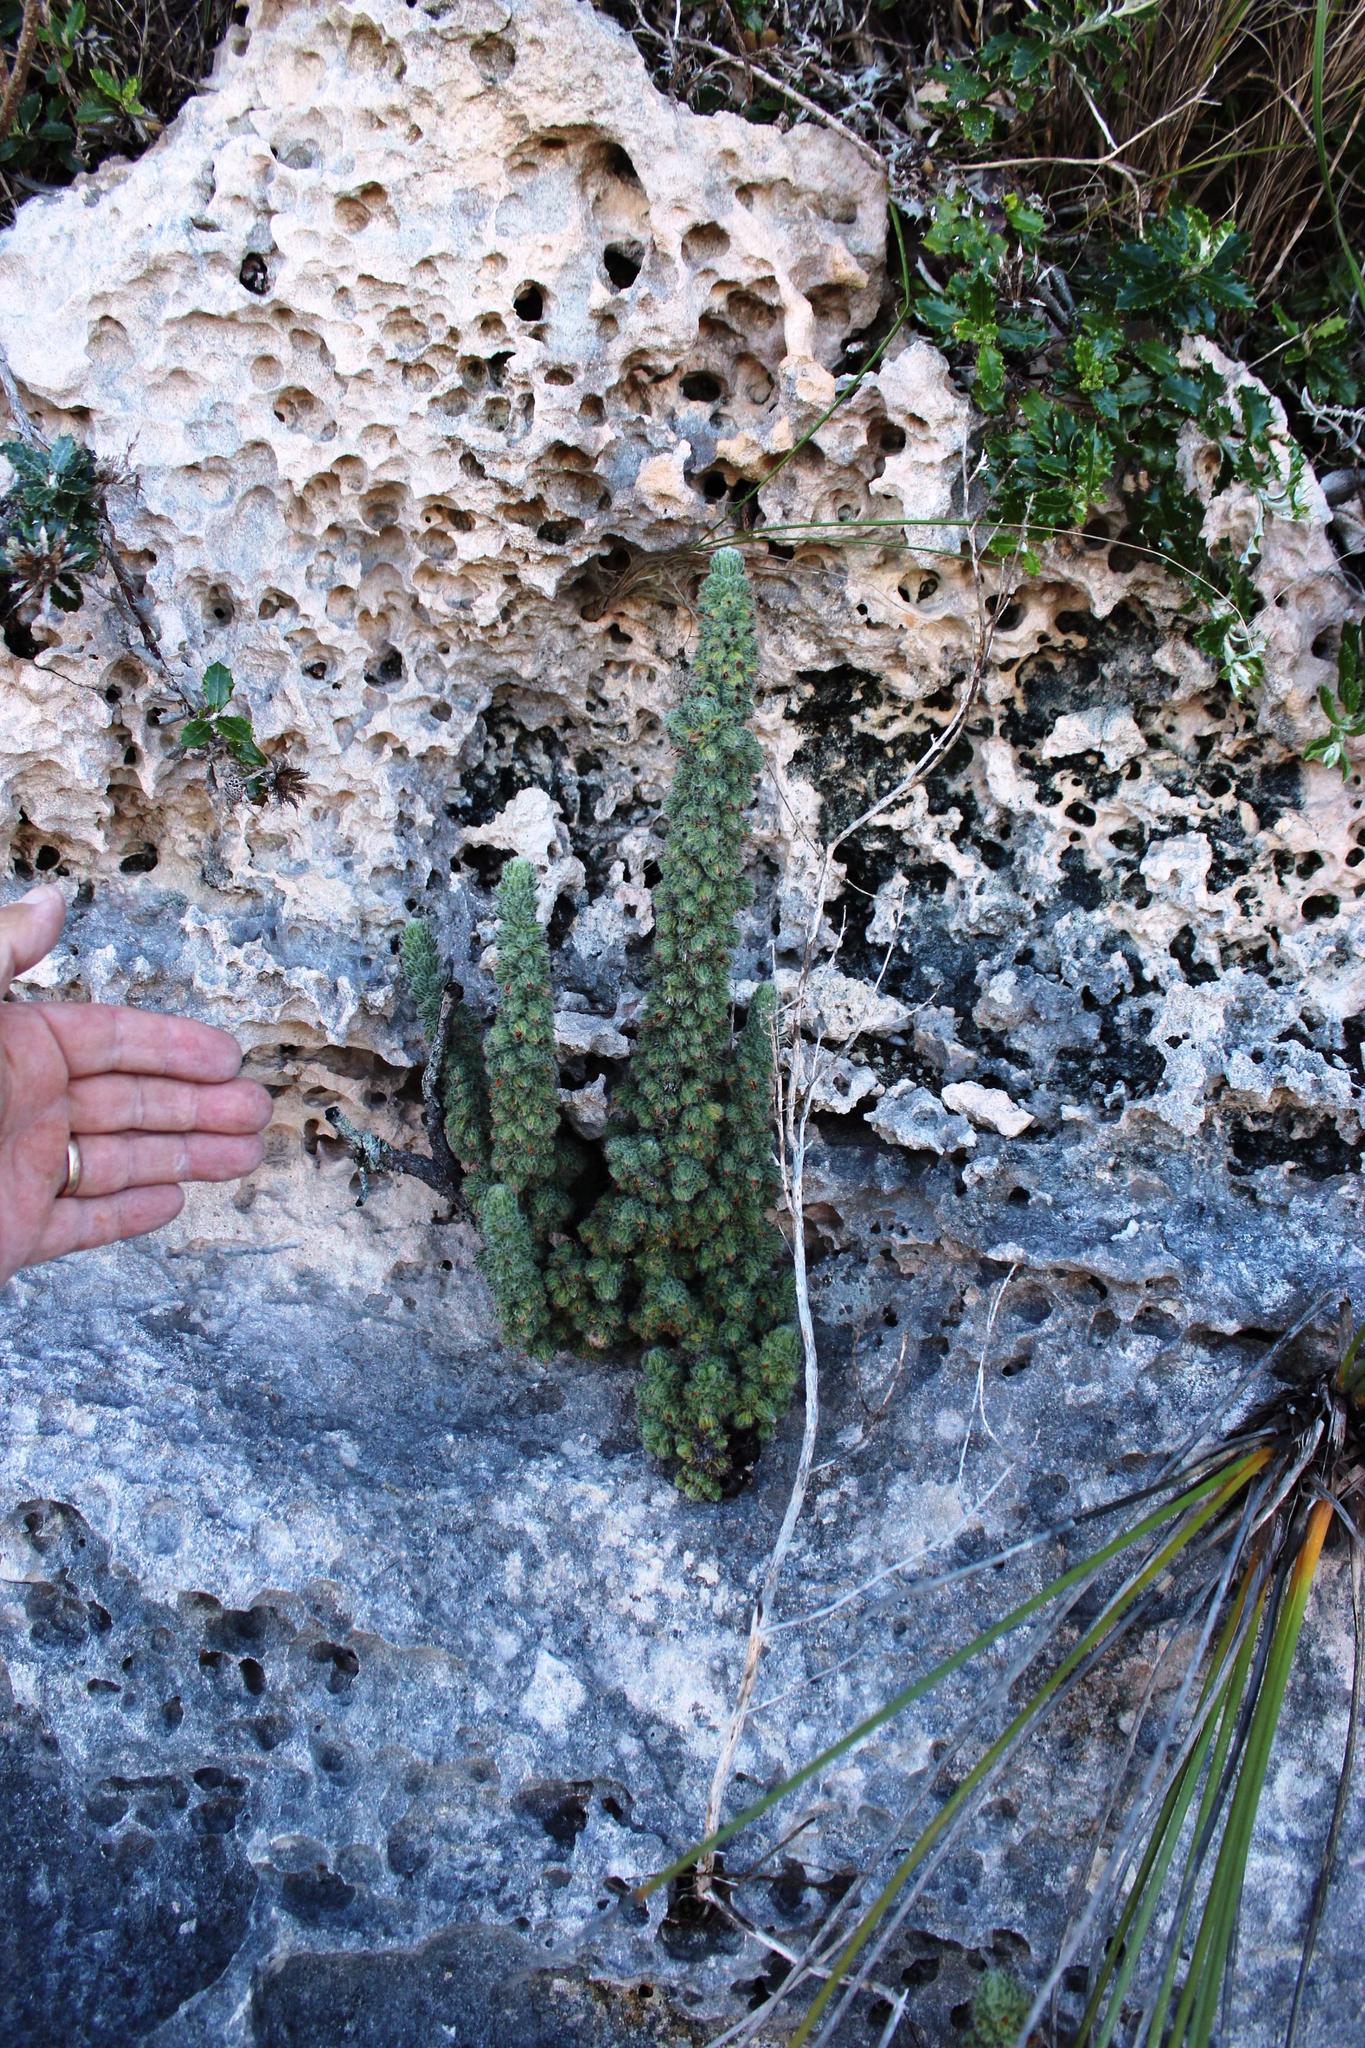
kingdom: Plantae
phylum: Tracheophyta
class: Magnoliopsida
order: Ericales
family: Ericaceae
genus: Erica
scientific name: Erica occulta
